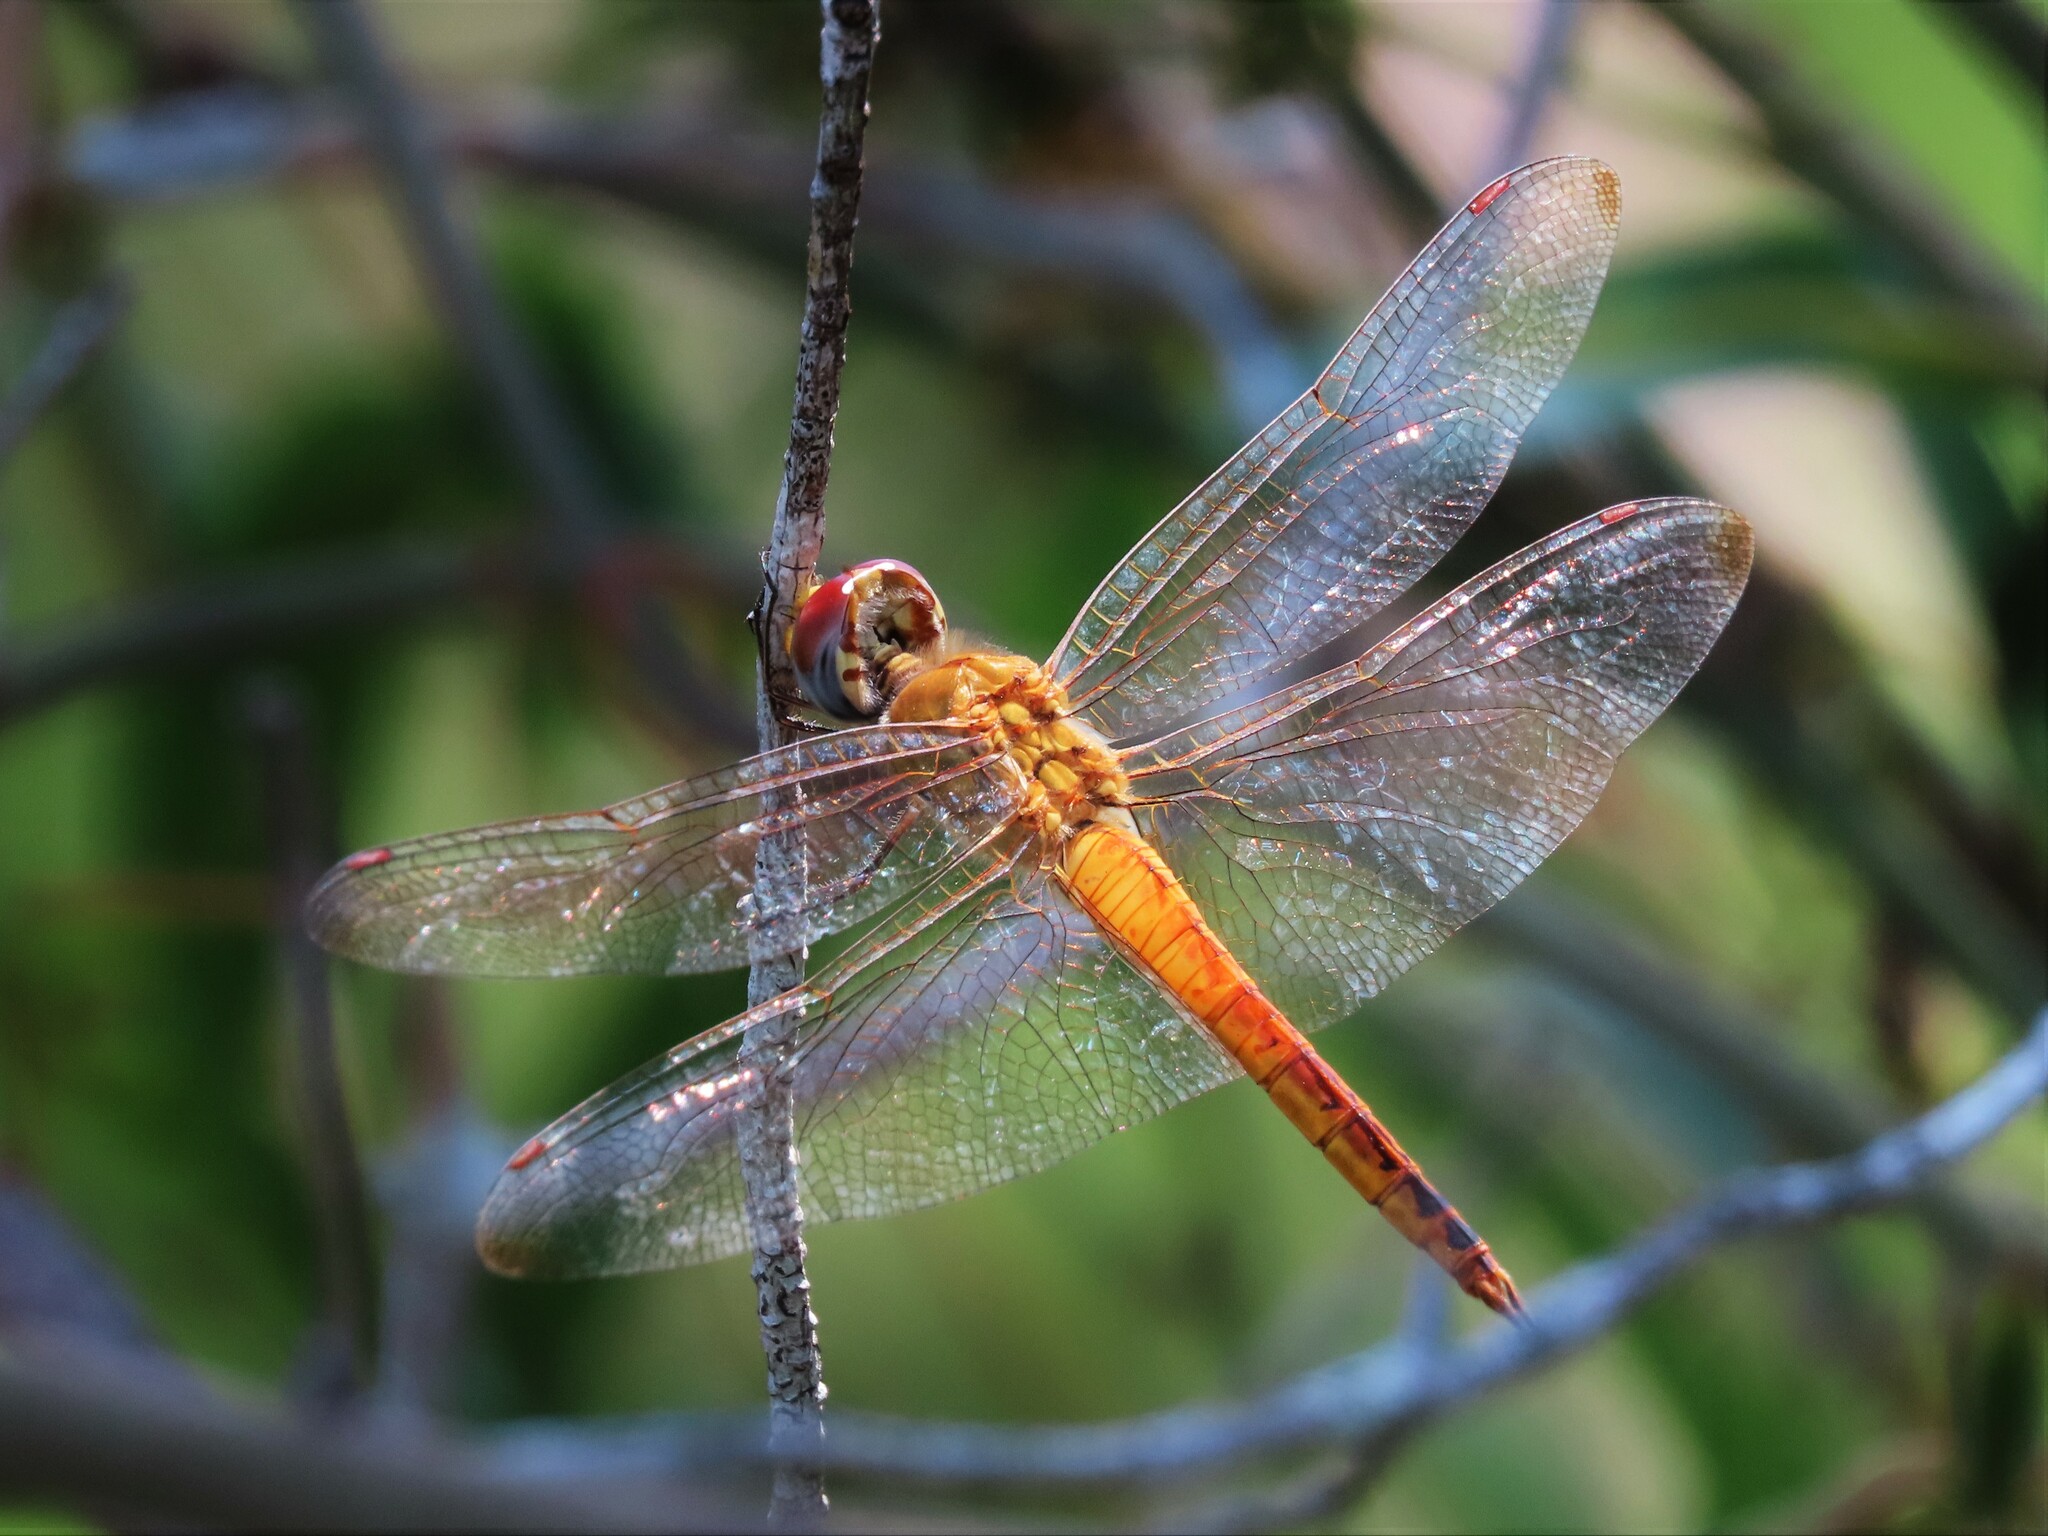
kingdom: Animalia
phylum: Arthropoda
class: Insecta
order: Odonata
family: Libellulidae
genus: Pantala
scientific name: Pantala flavescens
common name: Wandering glider
